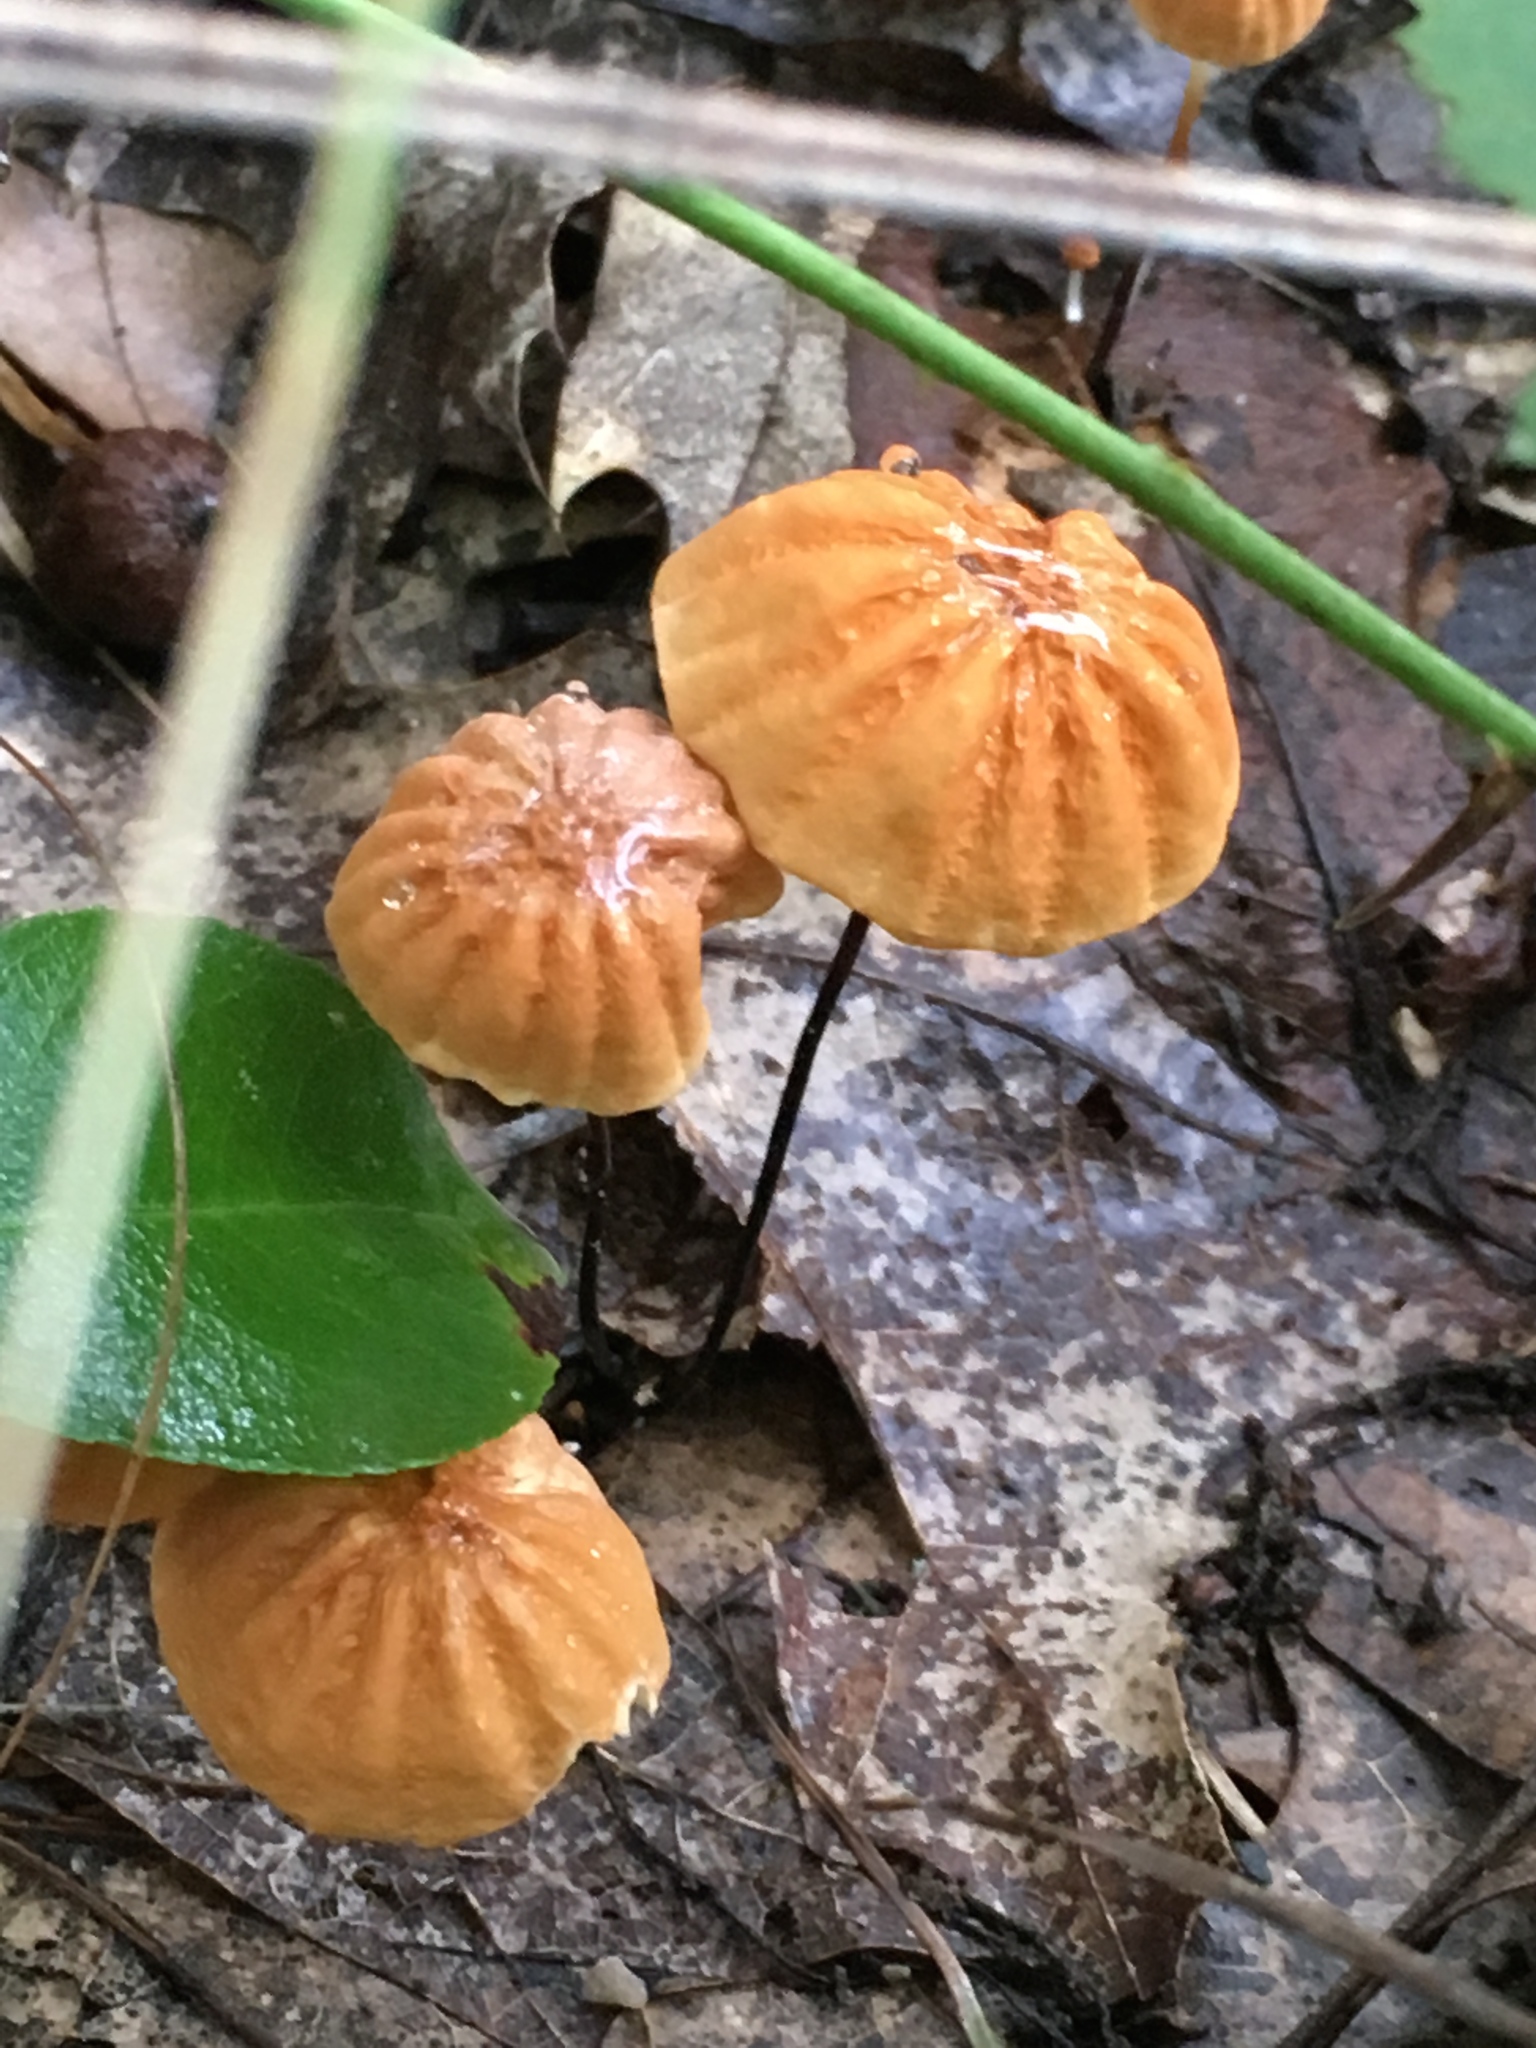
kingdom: Fungi
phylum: Basidiomycota
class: Agaricomycetes
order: Agaricales
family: Marasmiaceae
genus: Marasmius
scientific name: Marasmius siccus
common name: Orange pinwheel
